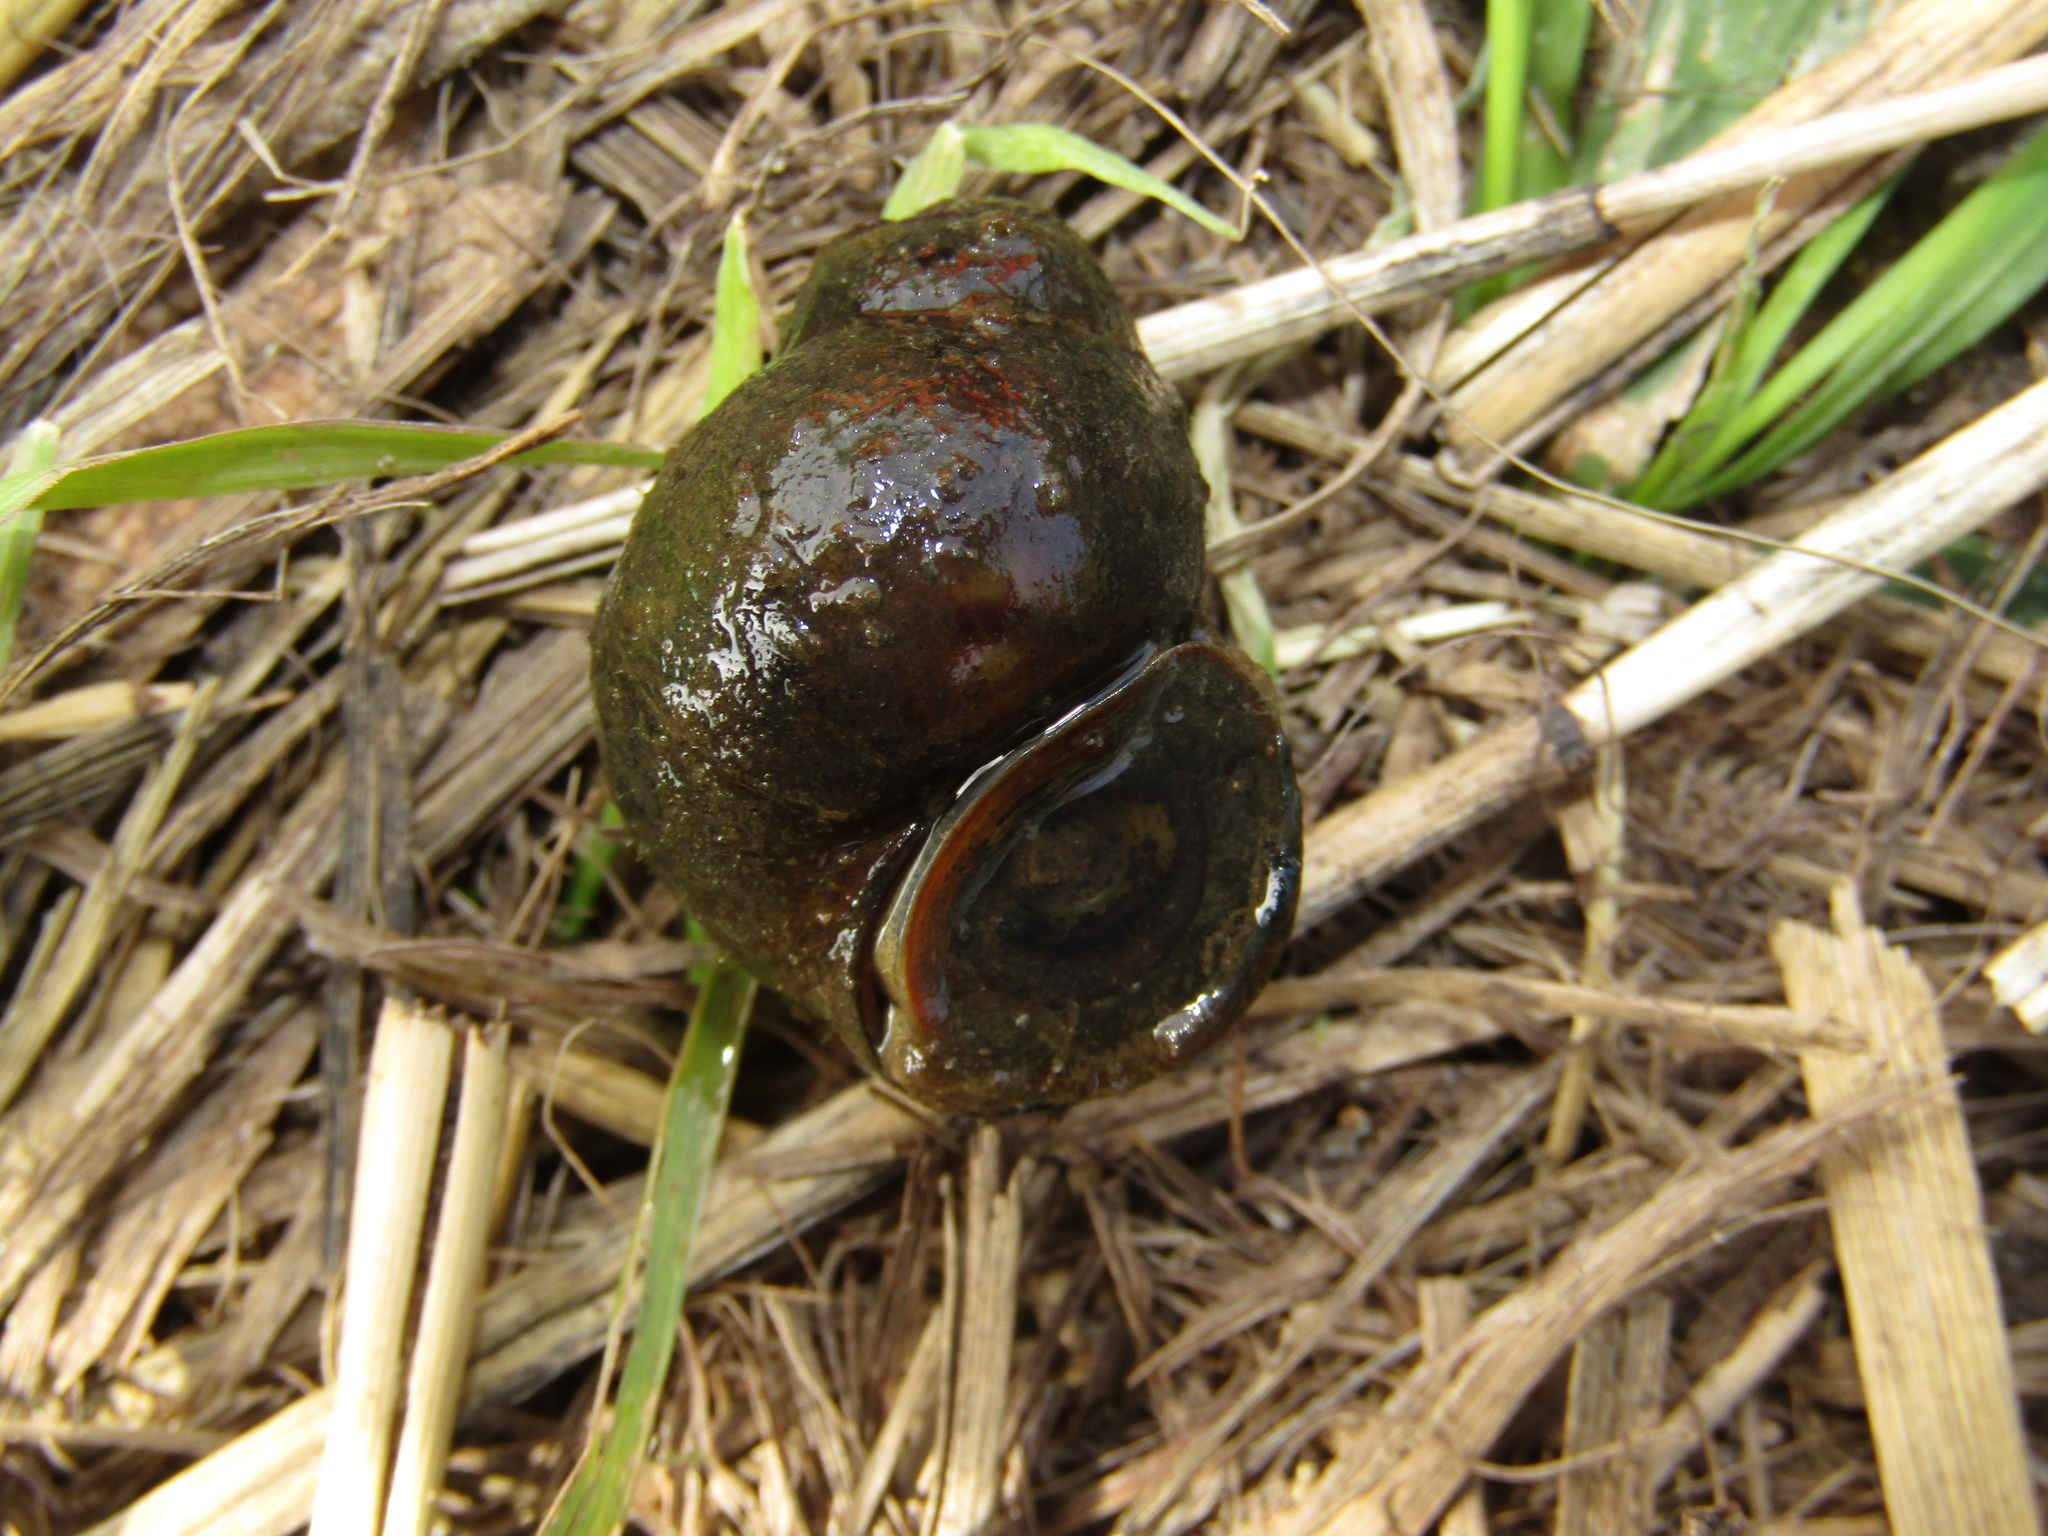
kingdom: Animalia
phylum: Mollusca
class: Gastropoda
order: Architaenioglossa
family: Viviparidae
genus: Viviparus
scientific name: Viviparus viviparus
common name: River snail
